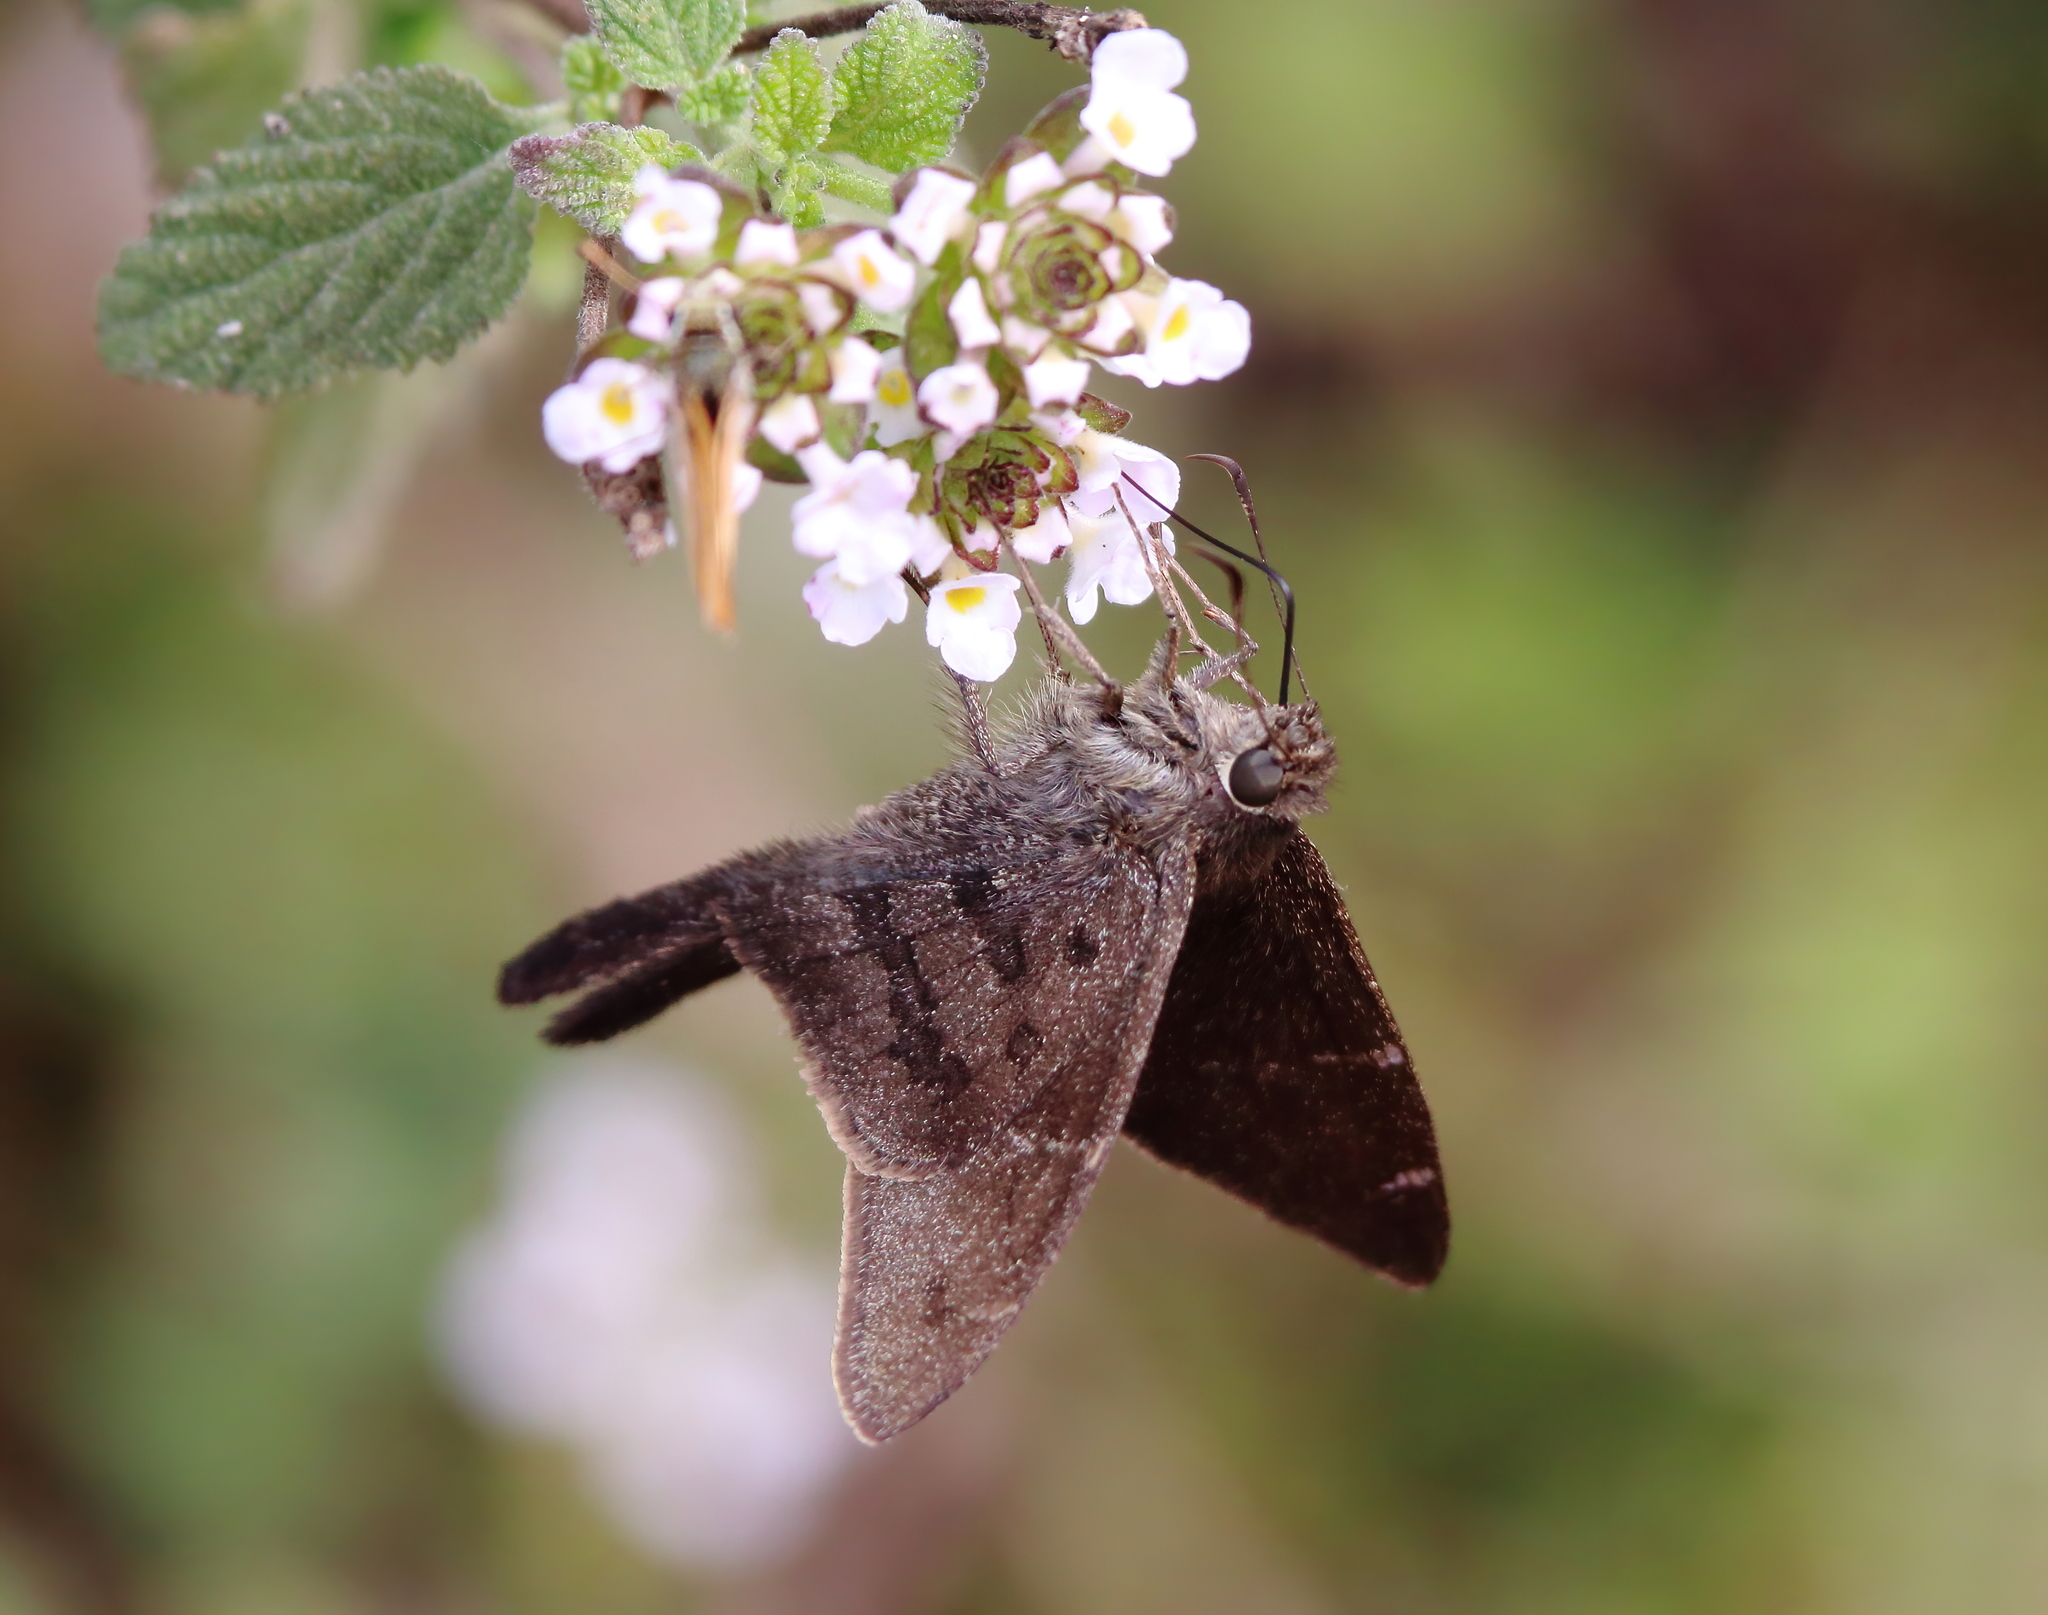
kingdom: Animalia
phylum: Arthropoda
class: Insecta
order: Lepidoptera
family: Hesperiidae
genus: Urbanus
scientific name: Urbanus procne
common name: Brown longtail
